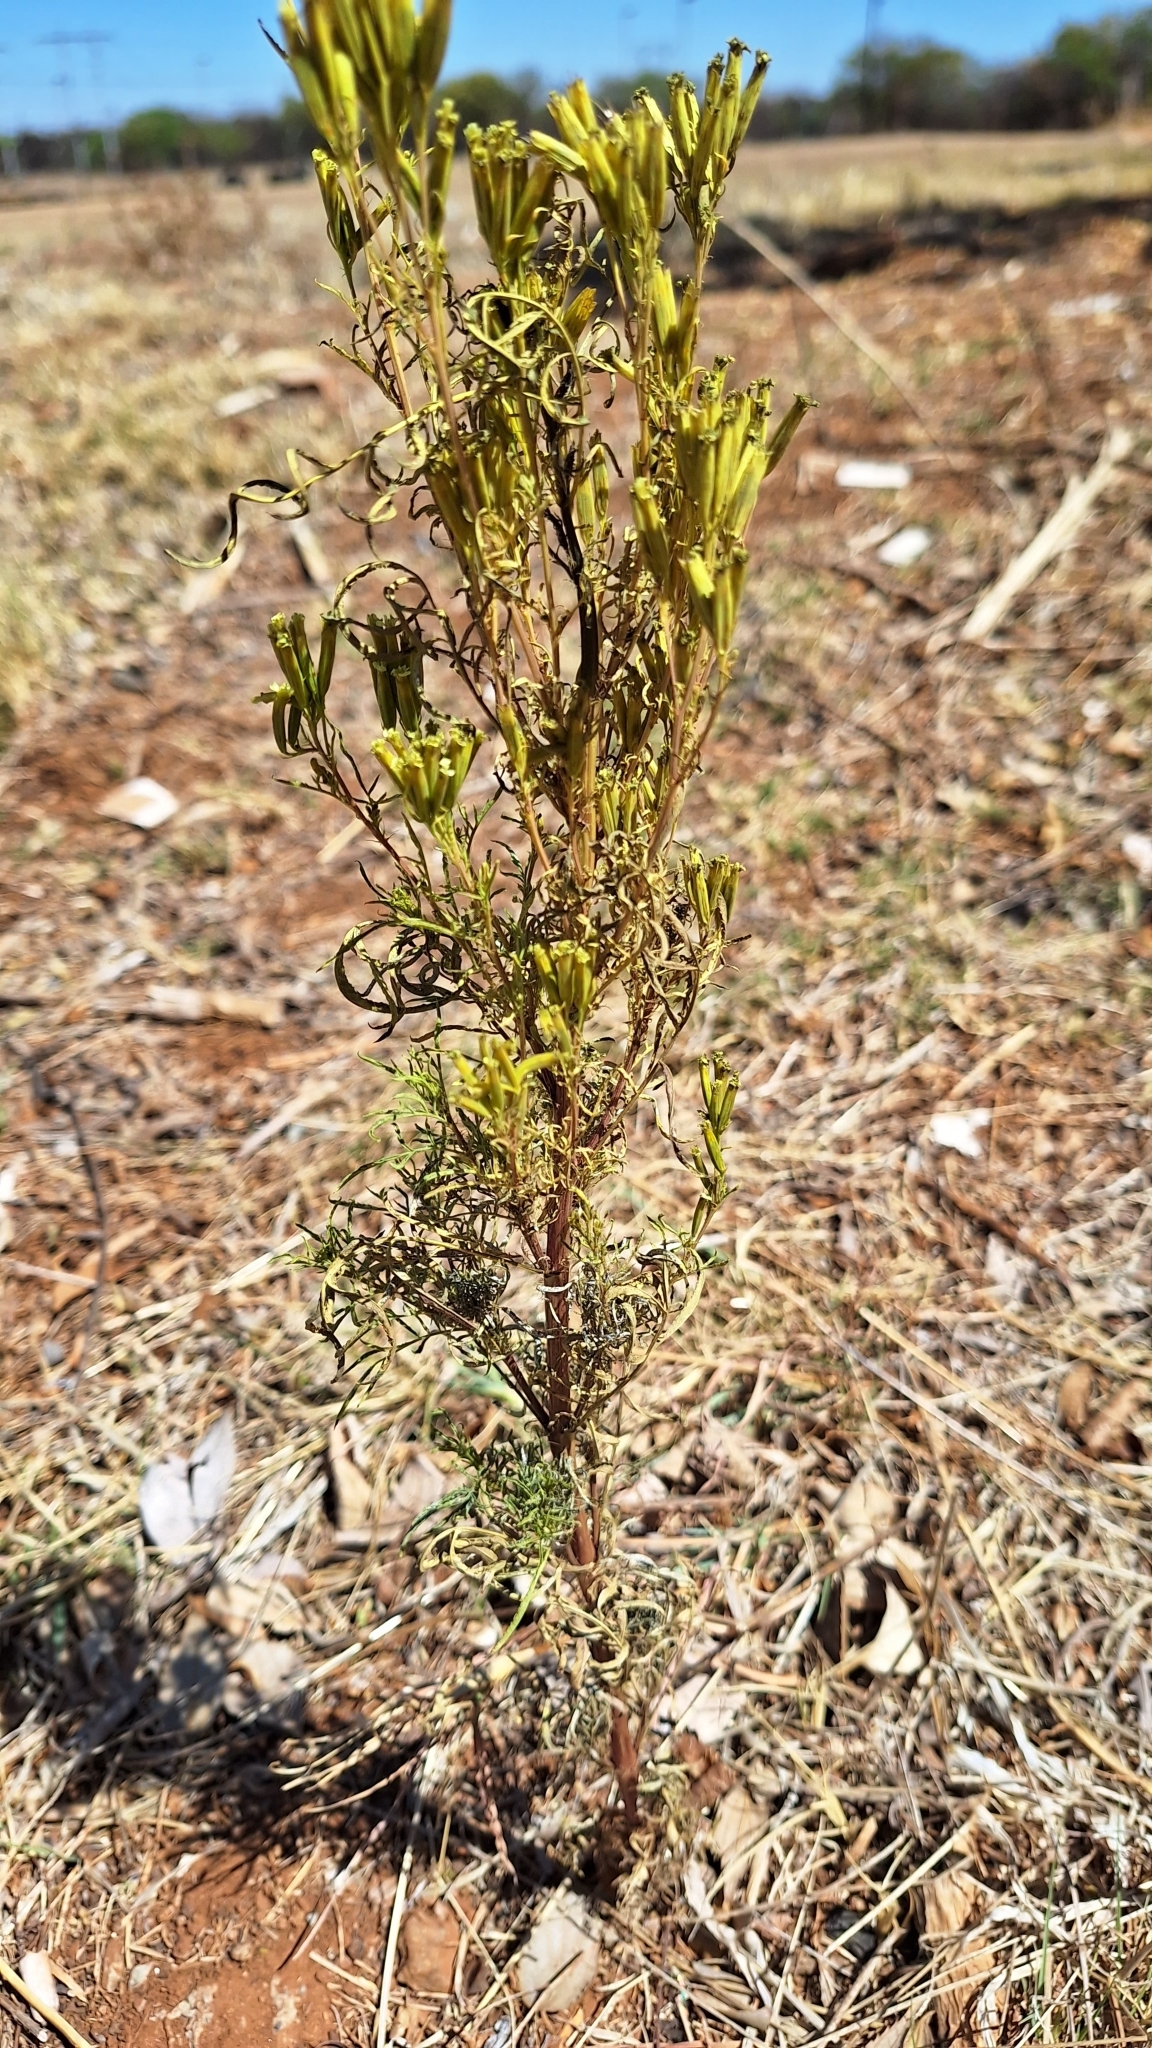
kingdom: Plantae
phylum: Tracheophyta
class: Magnoliopsida
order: Asterales
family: Asteraceae
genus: Tagetes
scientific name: Tagetes minuta
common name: Muster john henry
